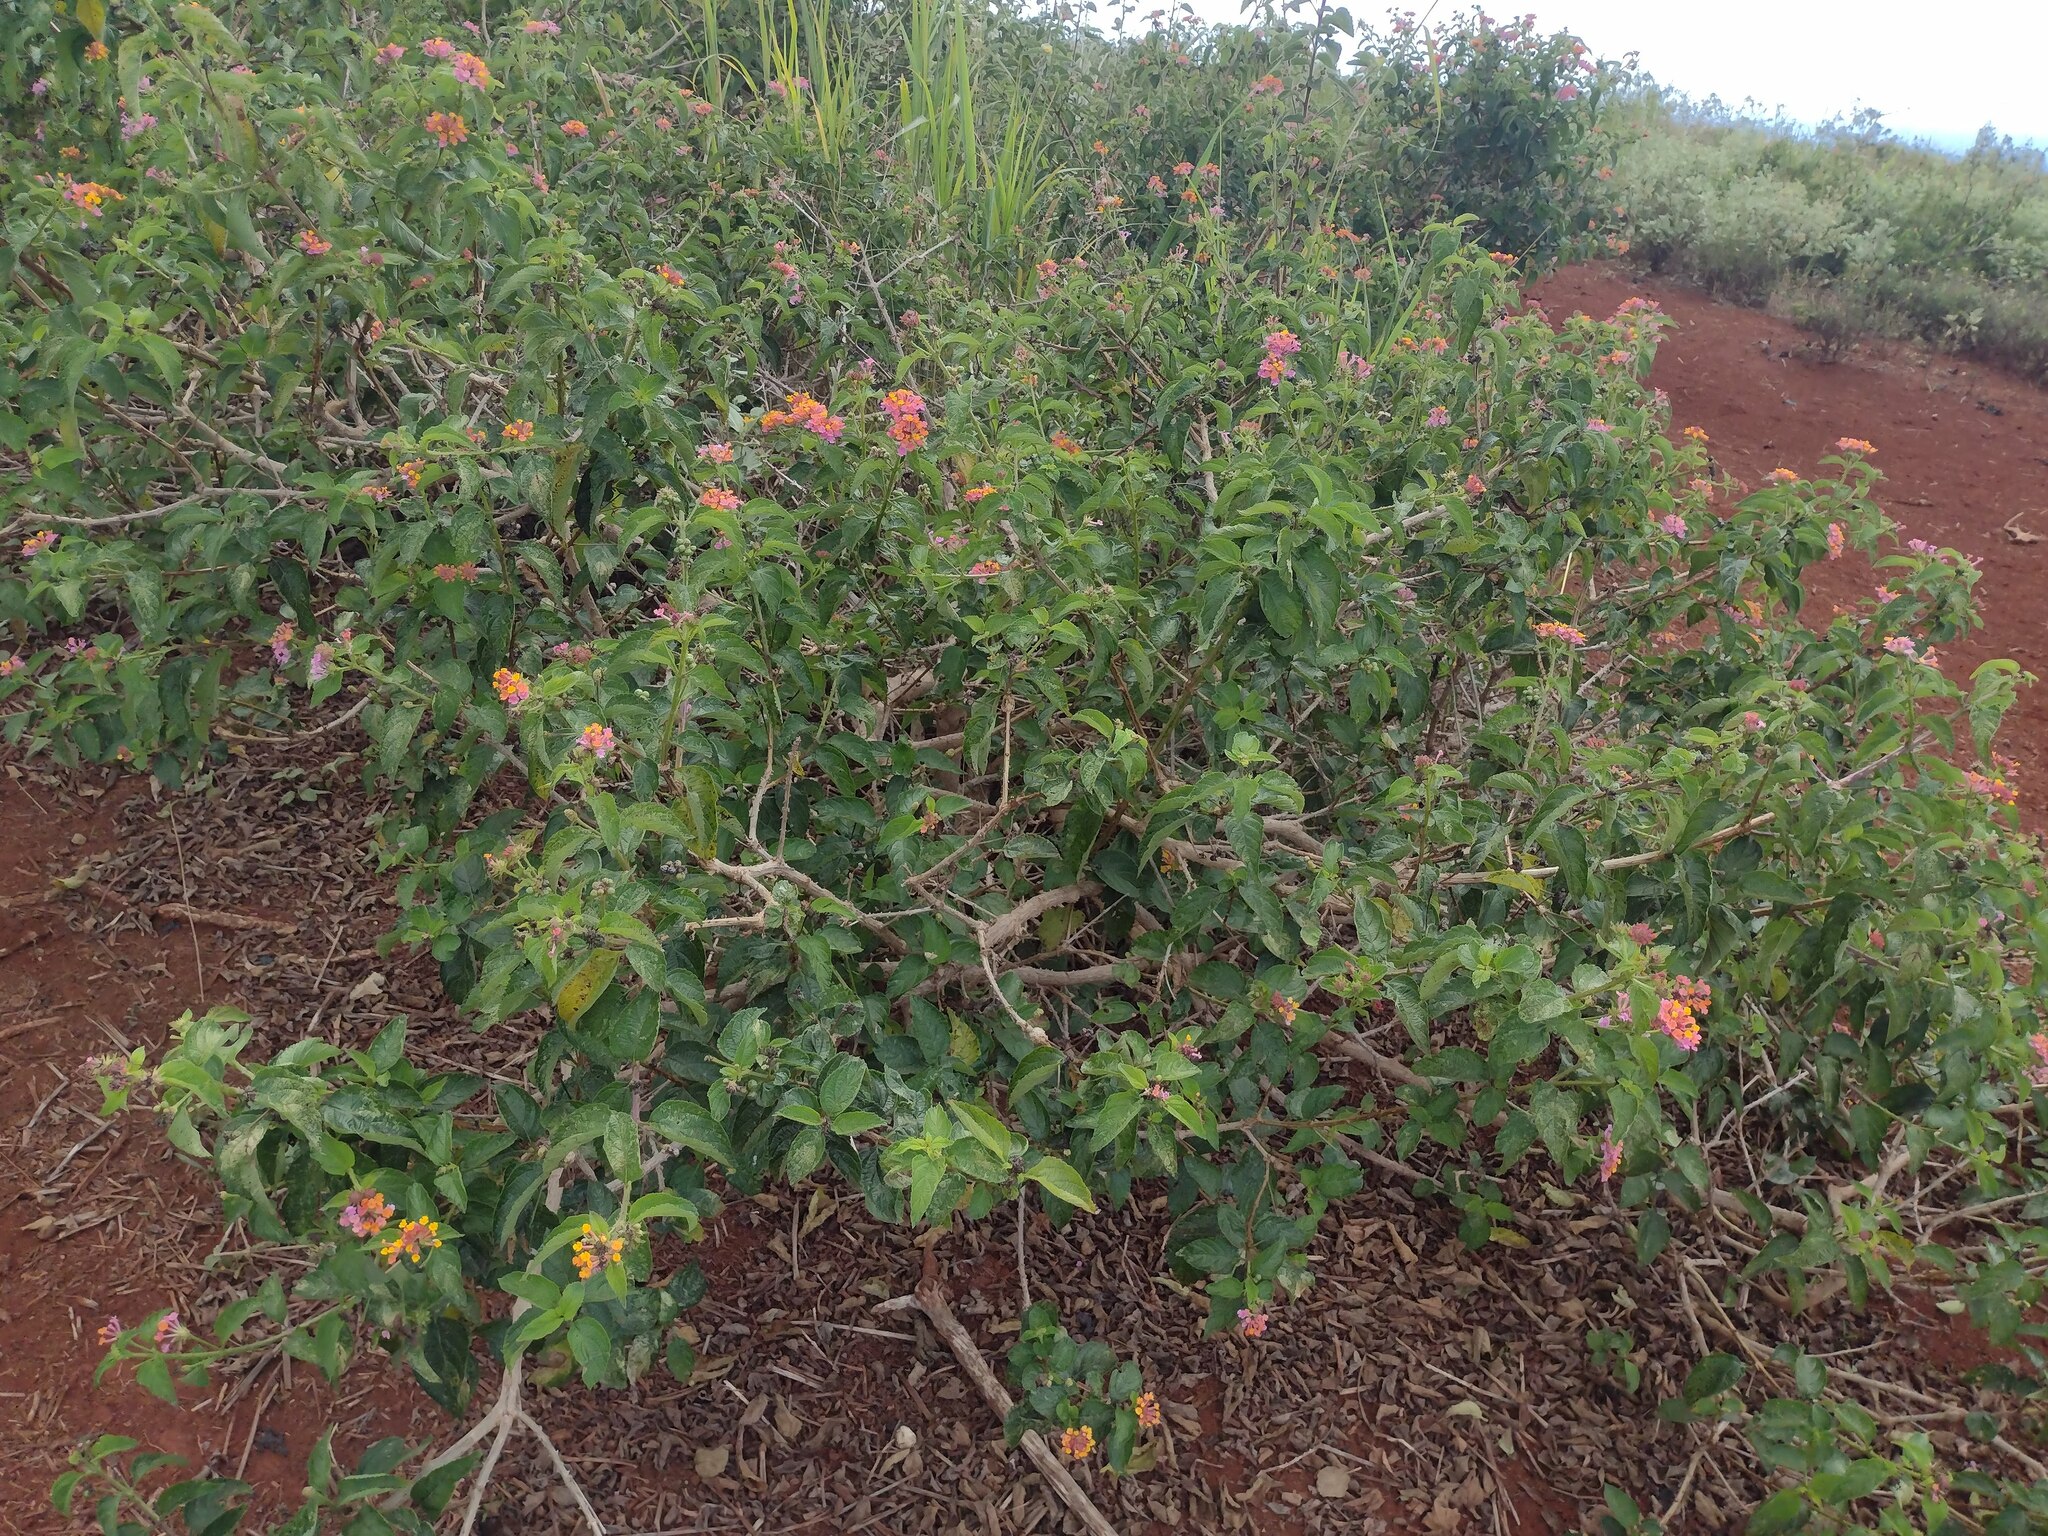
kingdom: Plantae
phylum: Tracheophyta
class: Magnoliopsida
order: Lamiales
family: Verbenaceae
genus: Lantana
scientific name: Lantana camara
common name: Lantana
